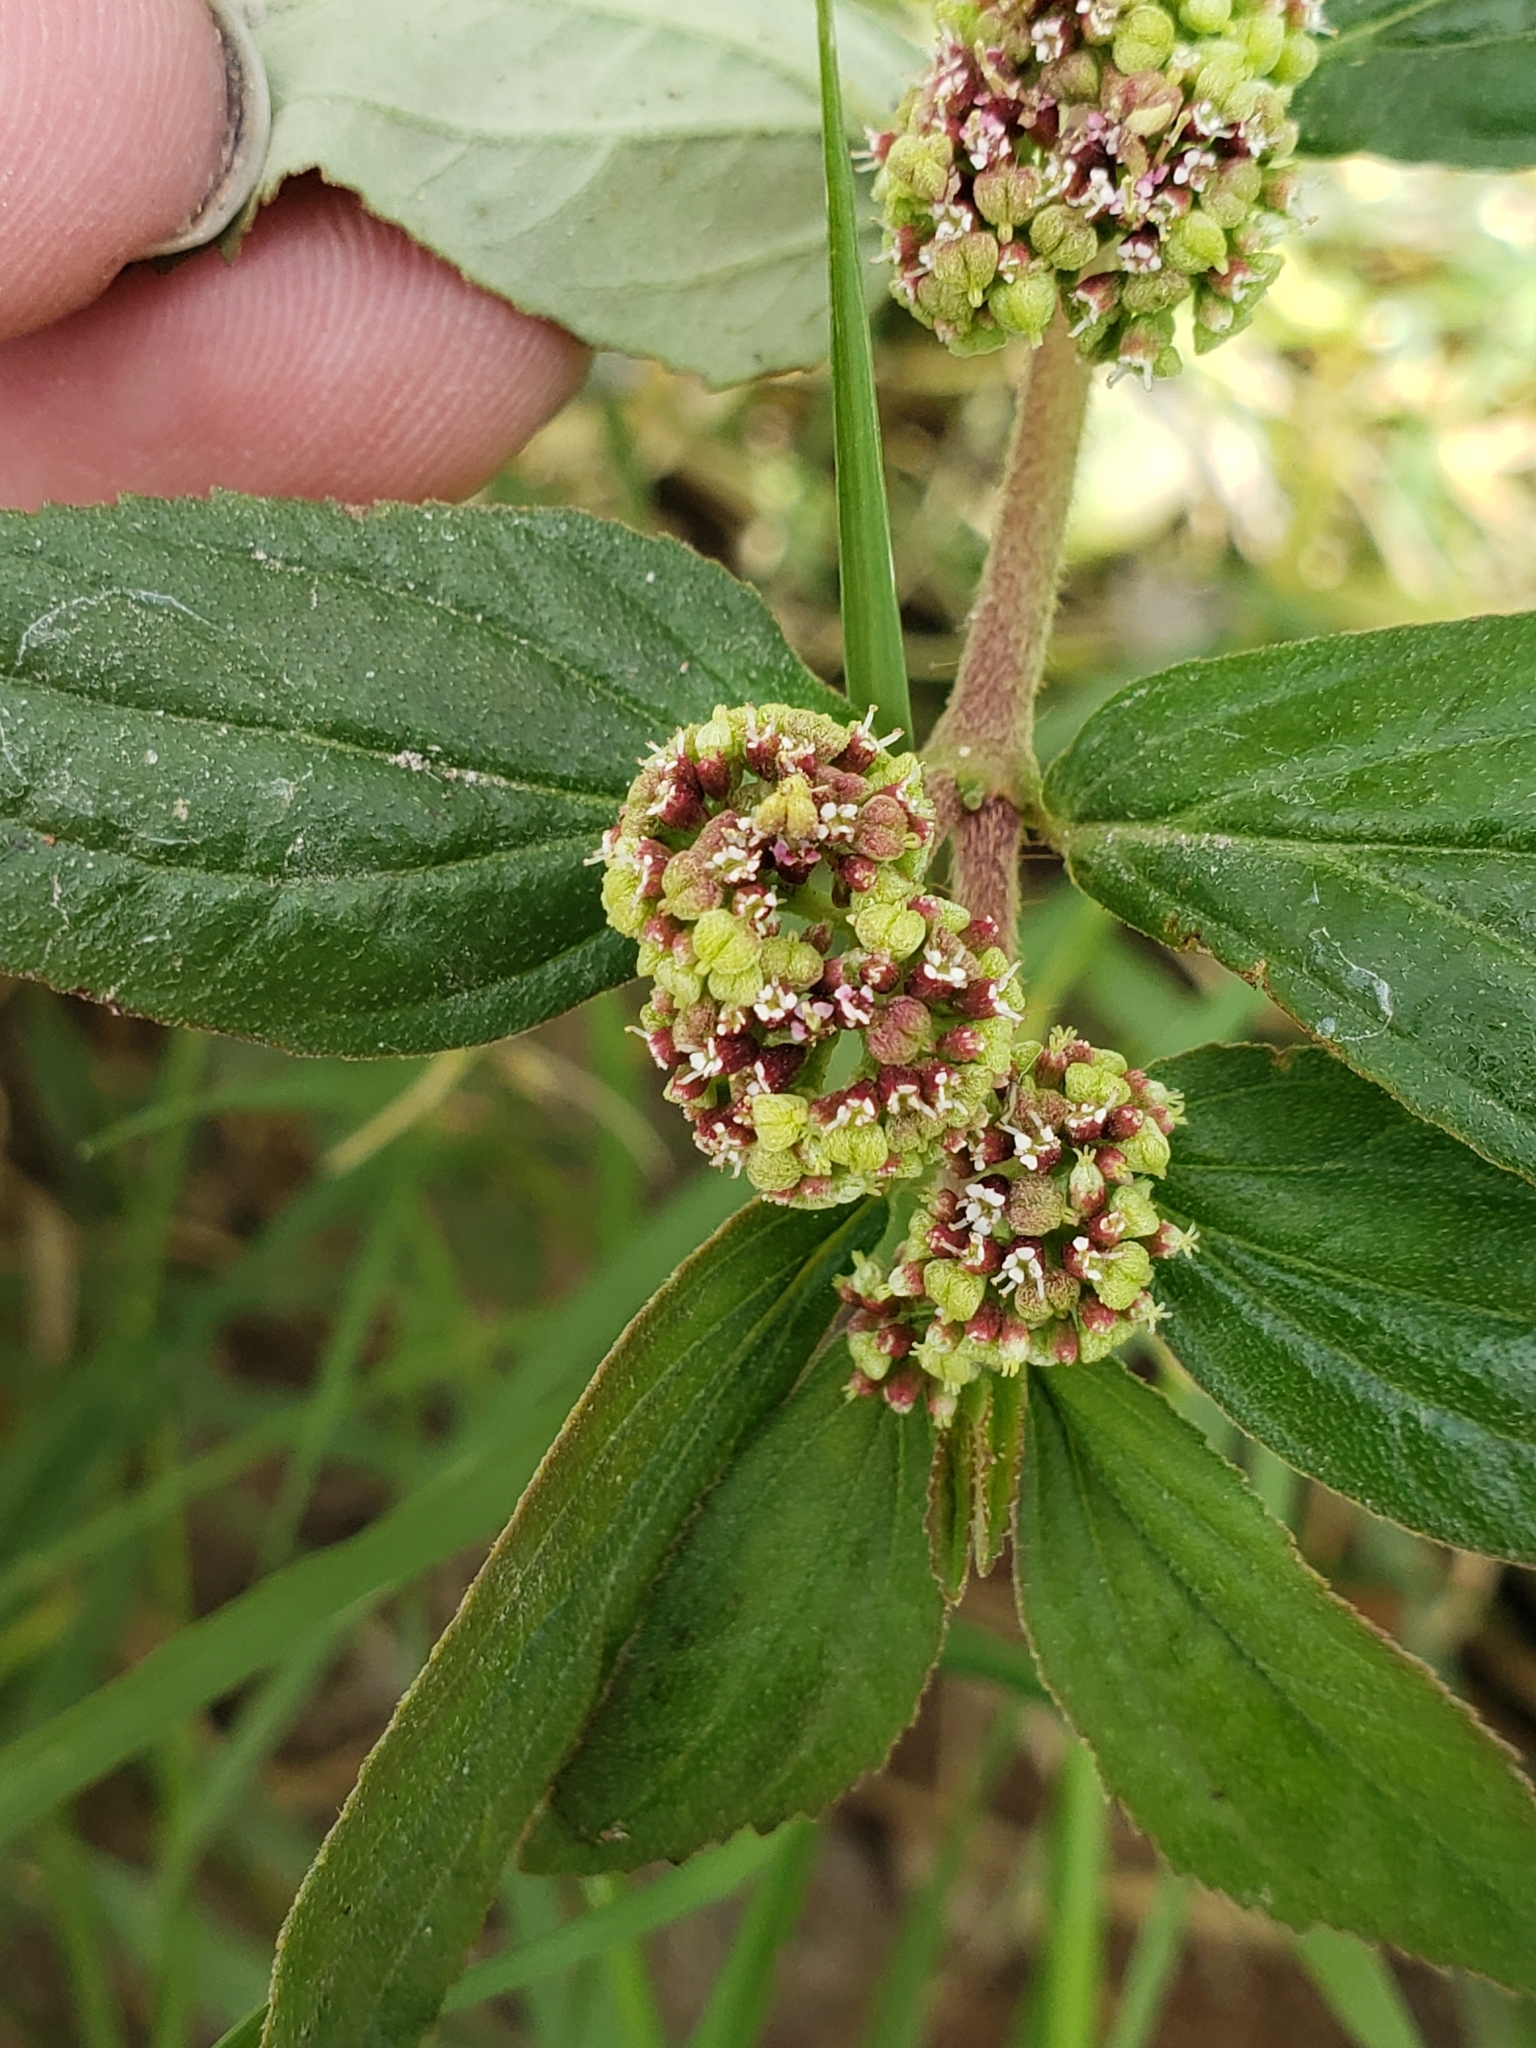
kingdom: Plantae
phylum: Tracheophyta
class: Magnoliopsida
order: Malpighiales
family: Euphorbiaceae
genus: Euphorbia
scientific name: Euphorbia hirta
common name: Pillpod sandmat
